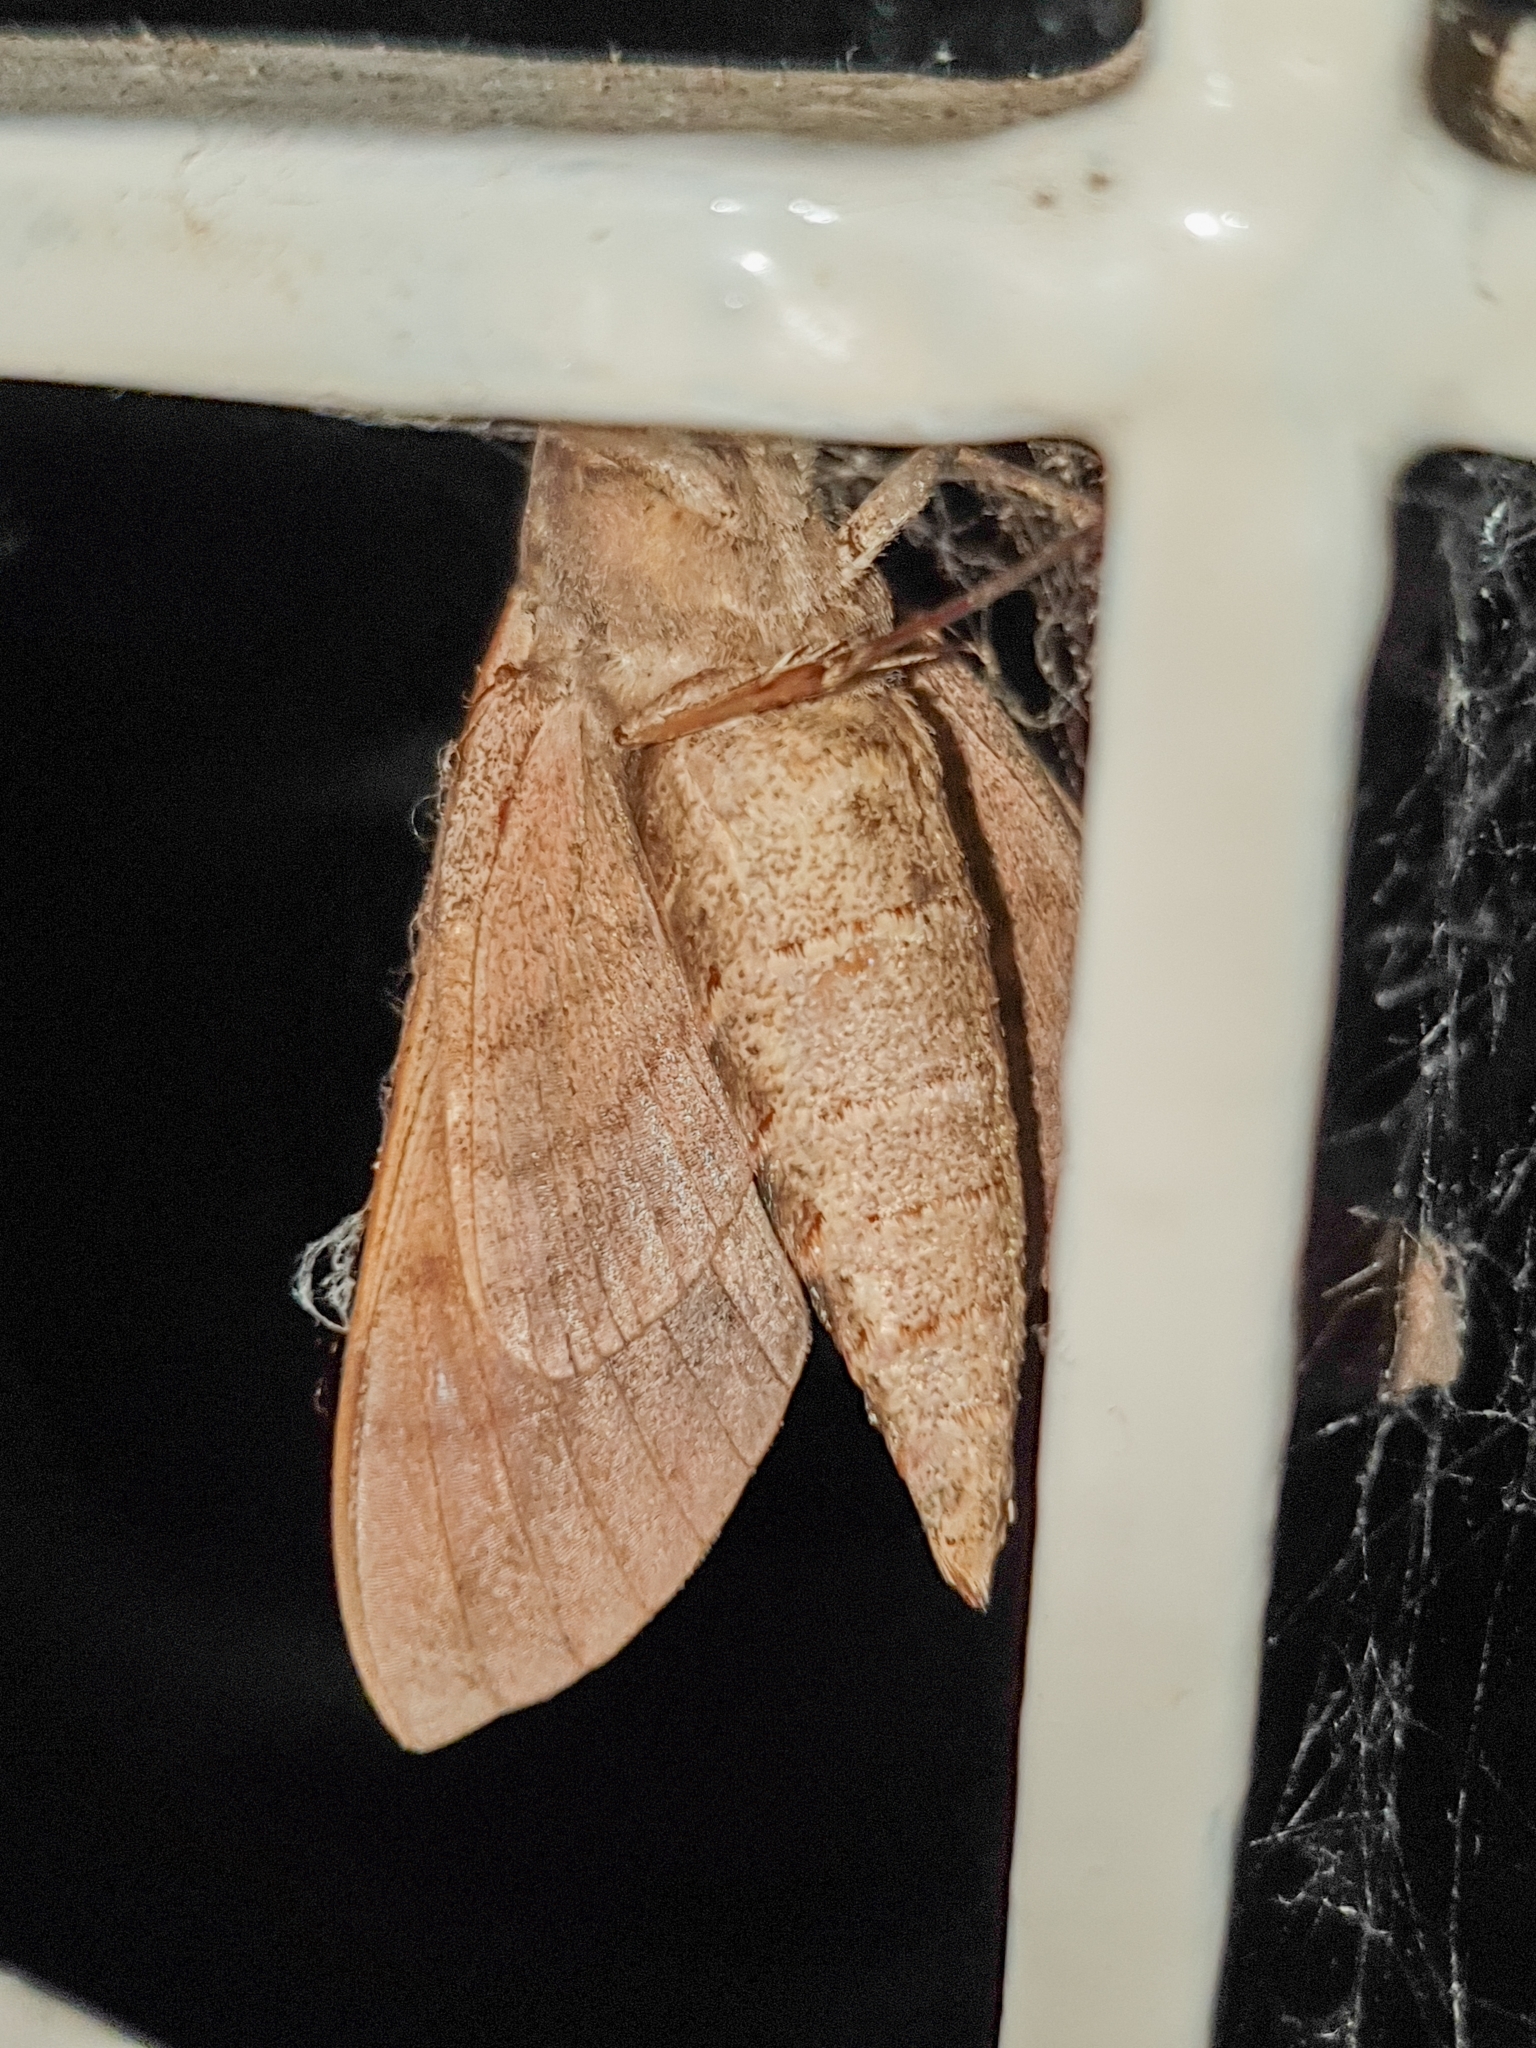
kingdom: Animalia
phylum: Arthropoda
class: Insecta
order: Lepidoptera
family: Sphingidae
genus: Nephele
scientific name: Nephele hespera
